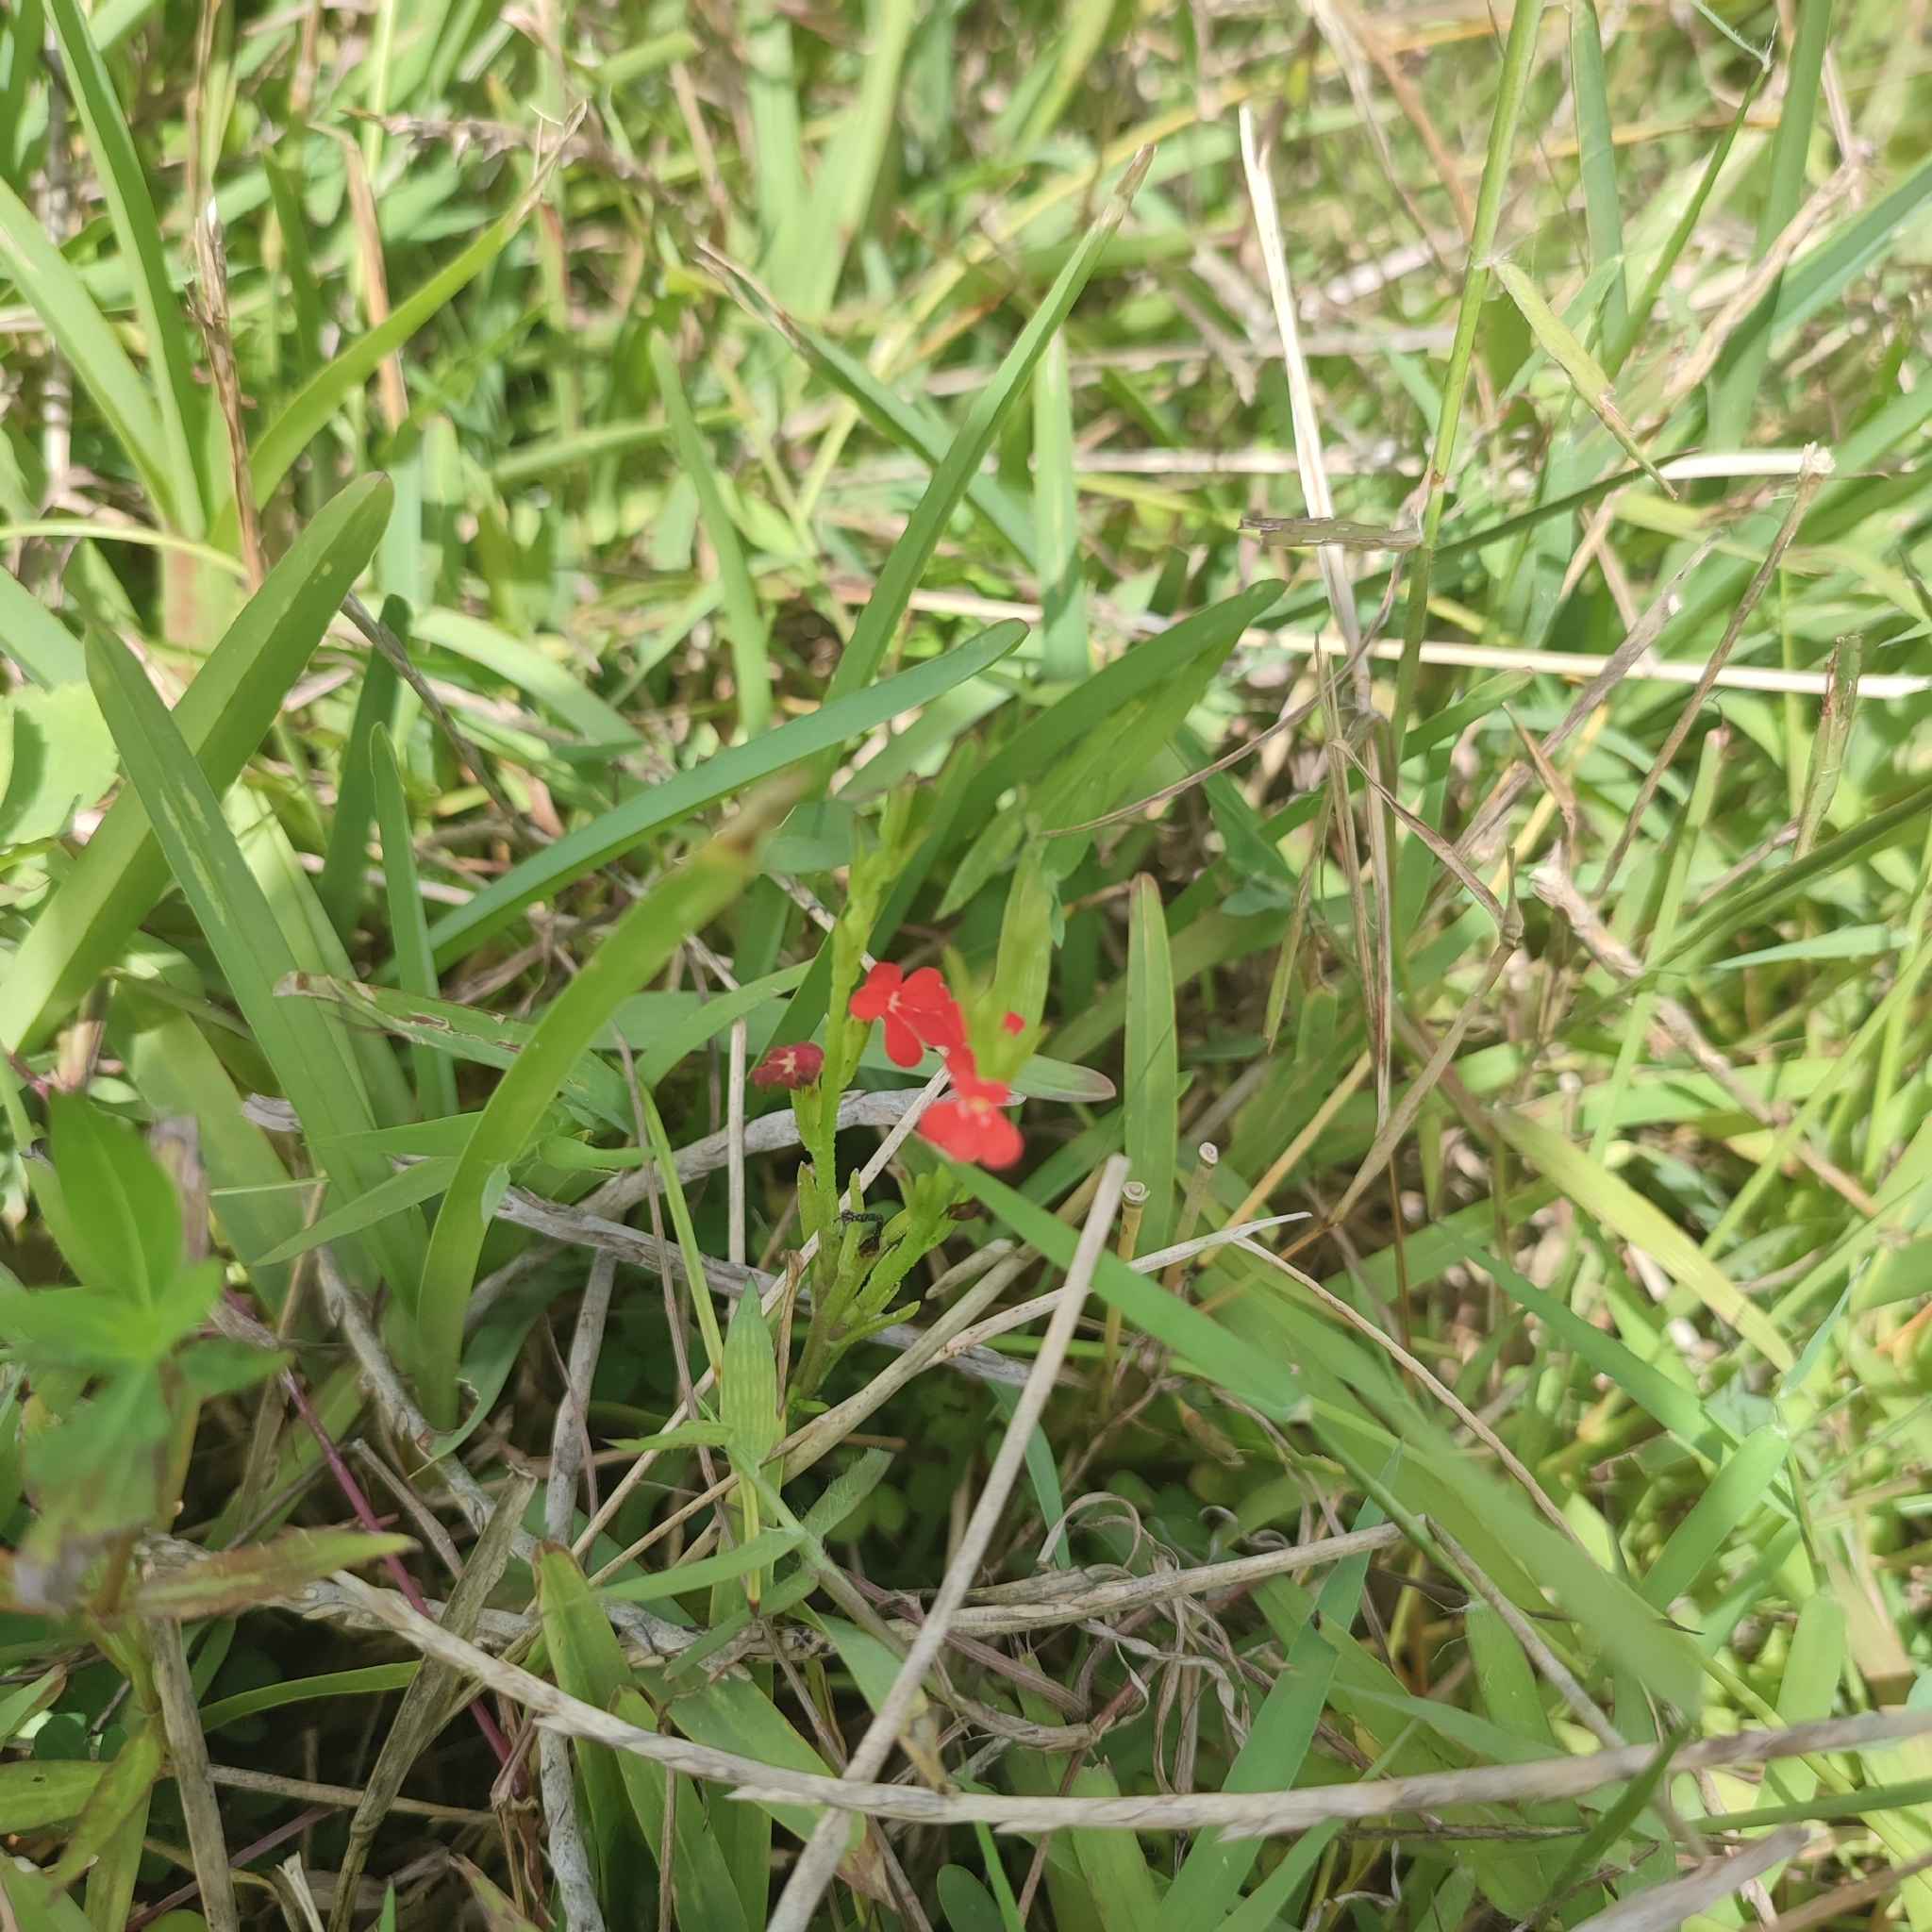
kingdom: Plantae
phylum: Tracheophyta
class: Magnoliopsida
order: Lamiales
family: Orobanchaceae
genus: Striga
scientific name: Striga asiatica
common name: Asiatic witchweed
